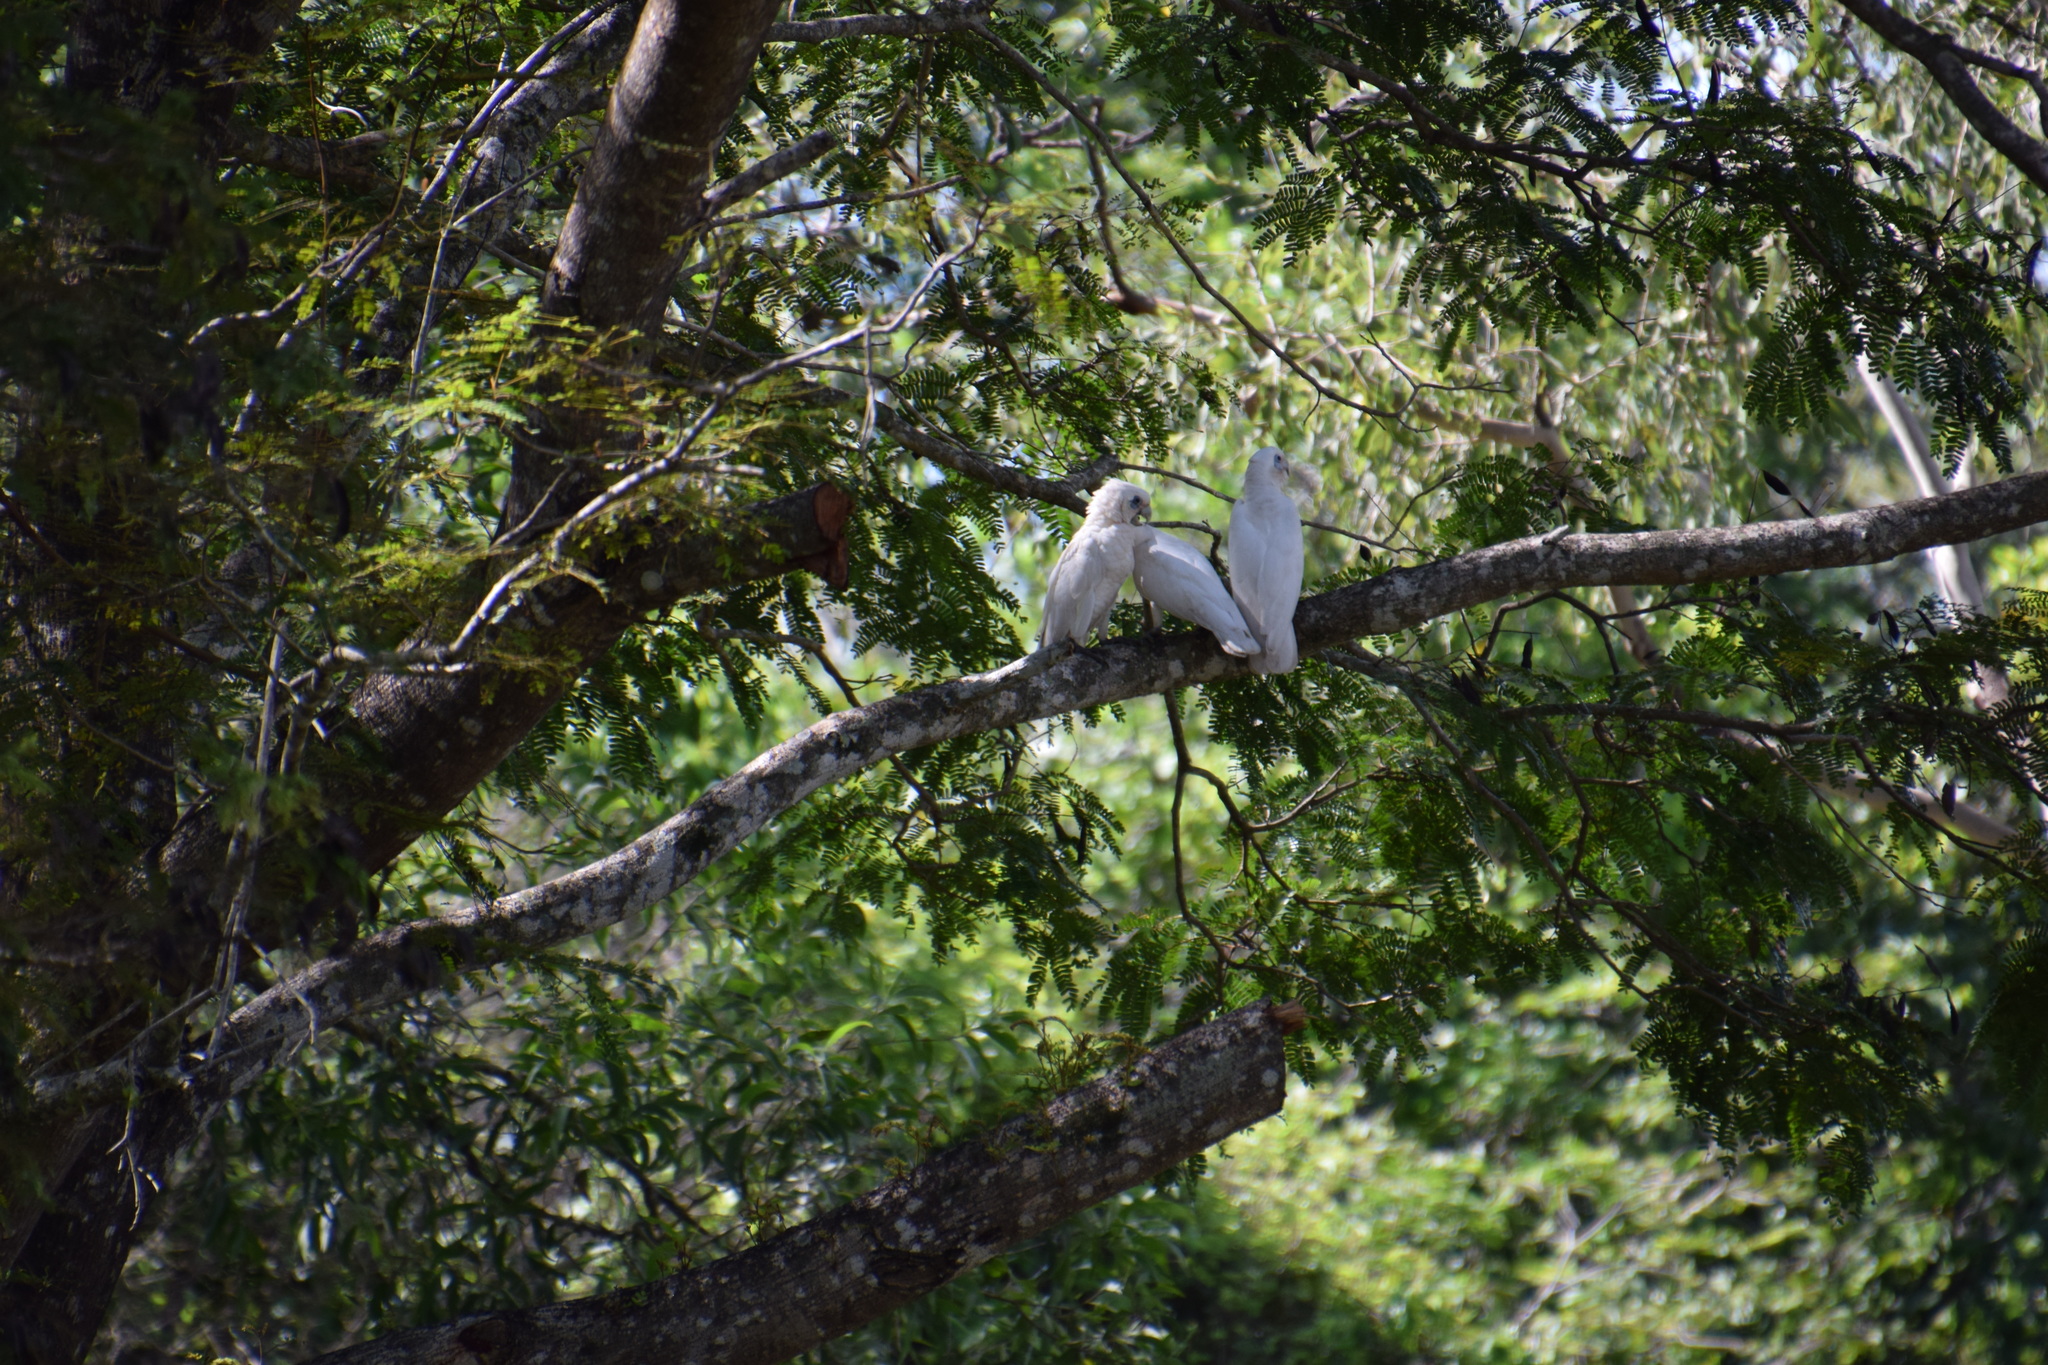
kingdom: Animalia
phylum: Chordata
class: Aves
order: Psittaciformes
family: Psittacidae
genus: Cacatua
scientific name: Cacatua sanguinea
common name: Little corella
